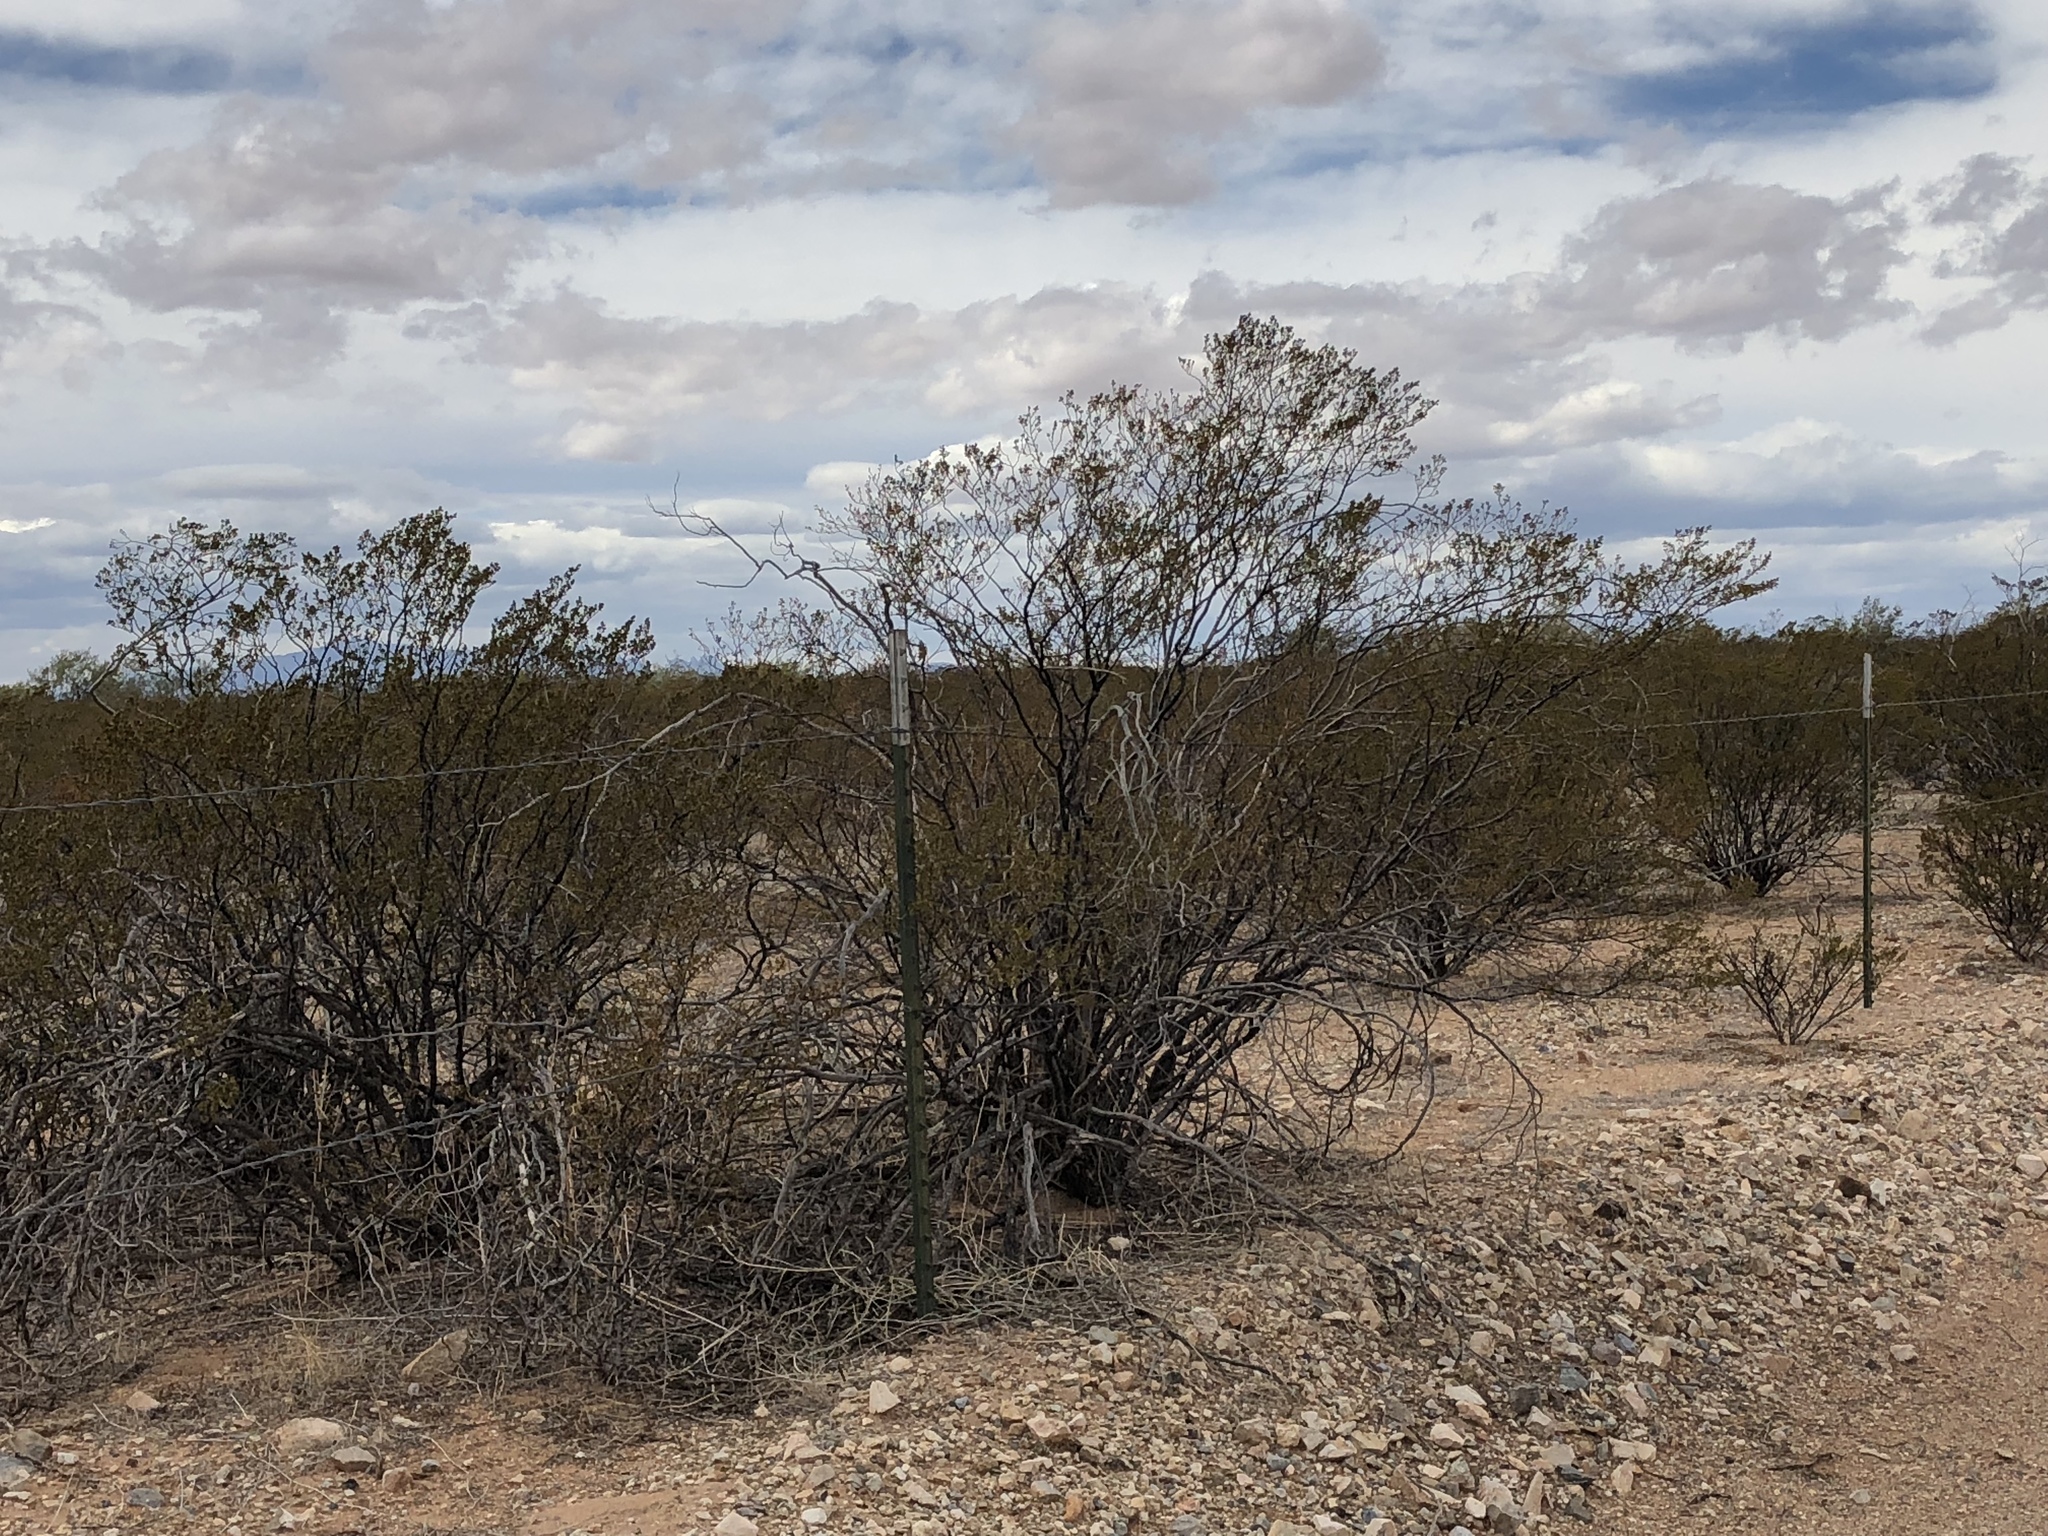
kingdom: Plantae
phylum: Tracheophyta
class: Magnoliopsida
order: Zygophyllales
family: Zygophyllaceae
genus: Larrea
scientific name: Larrea tridentata
